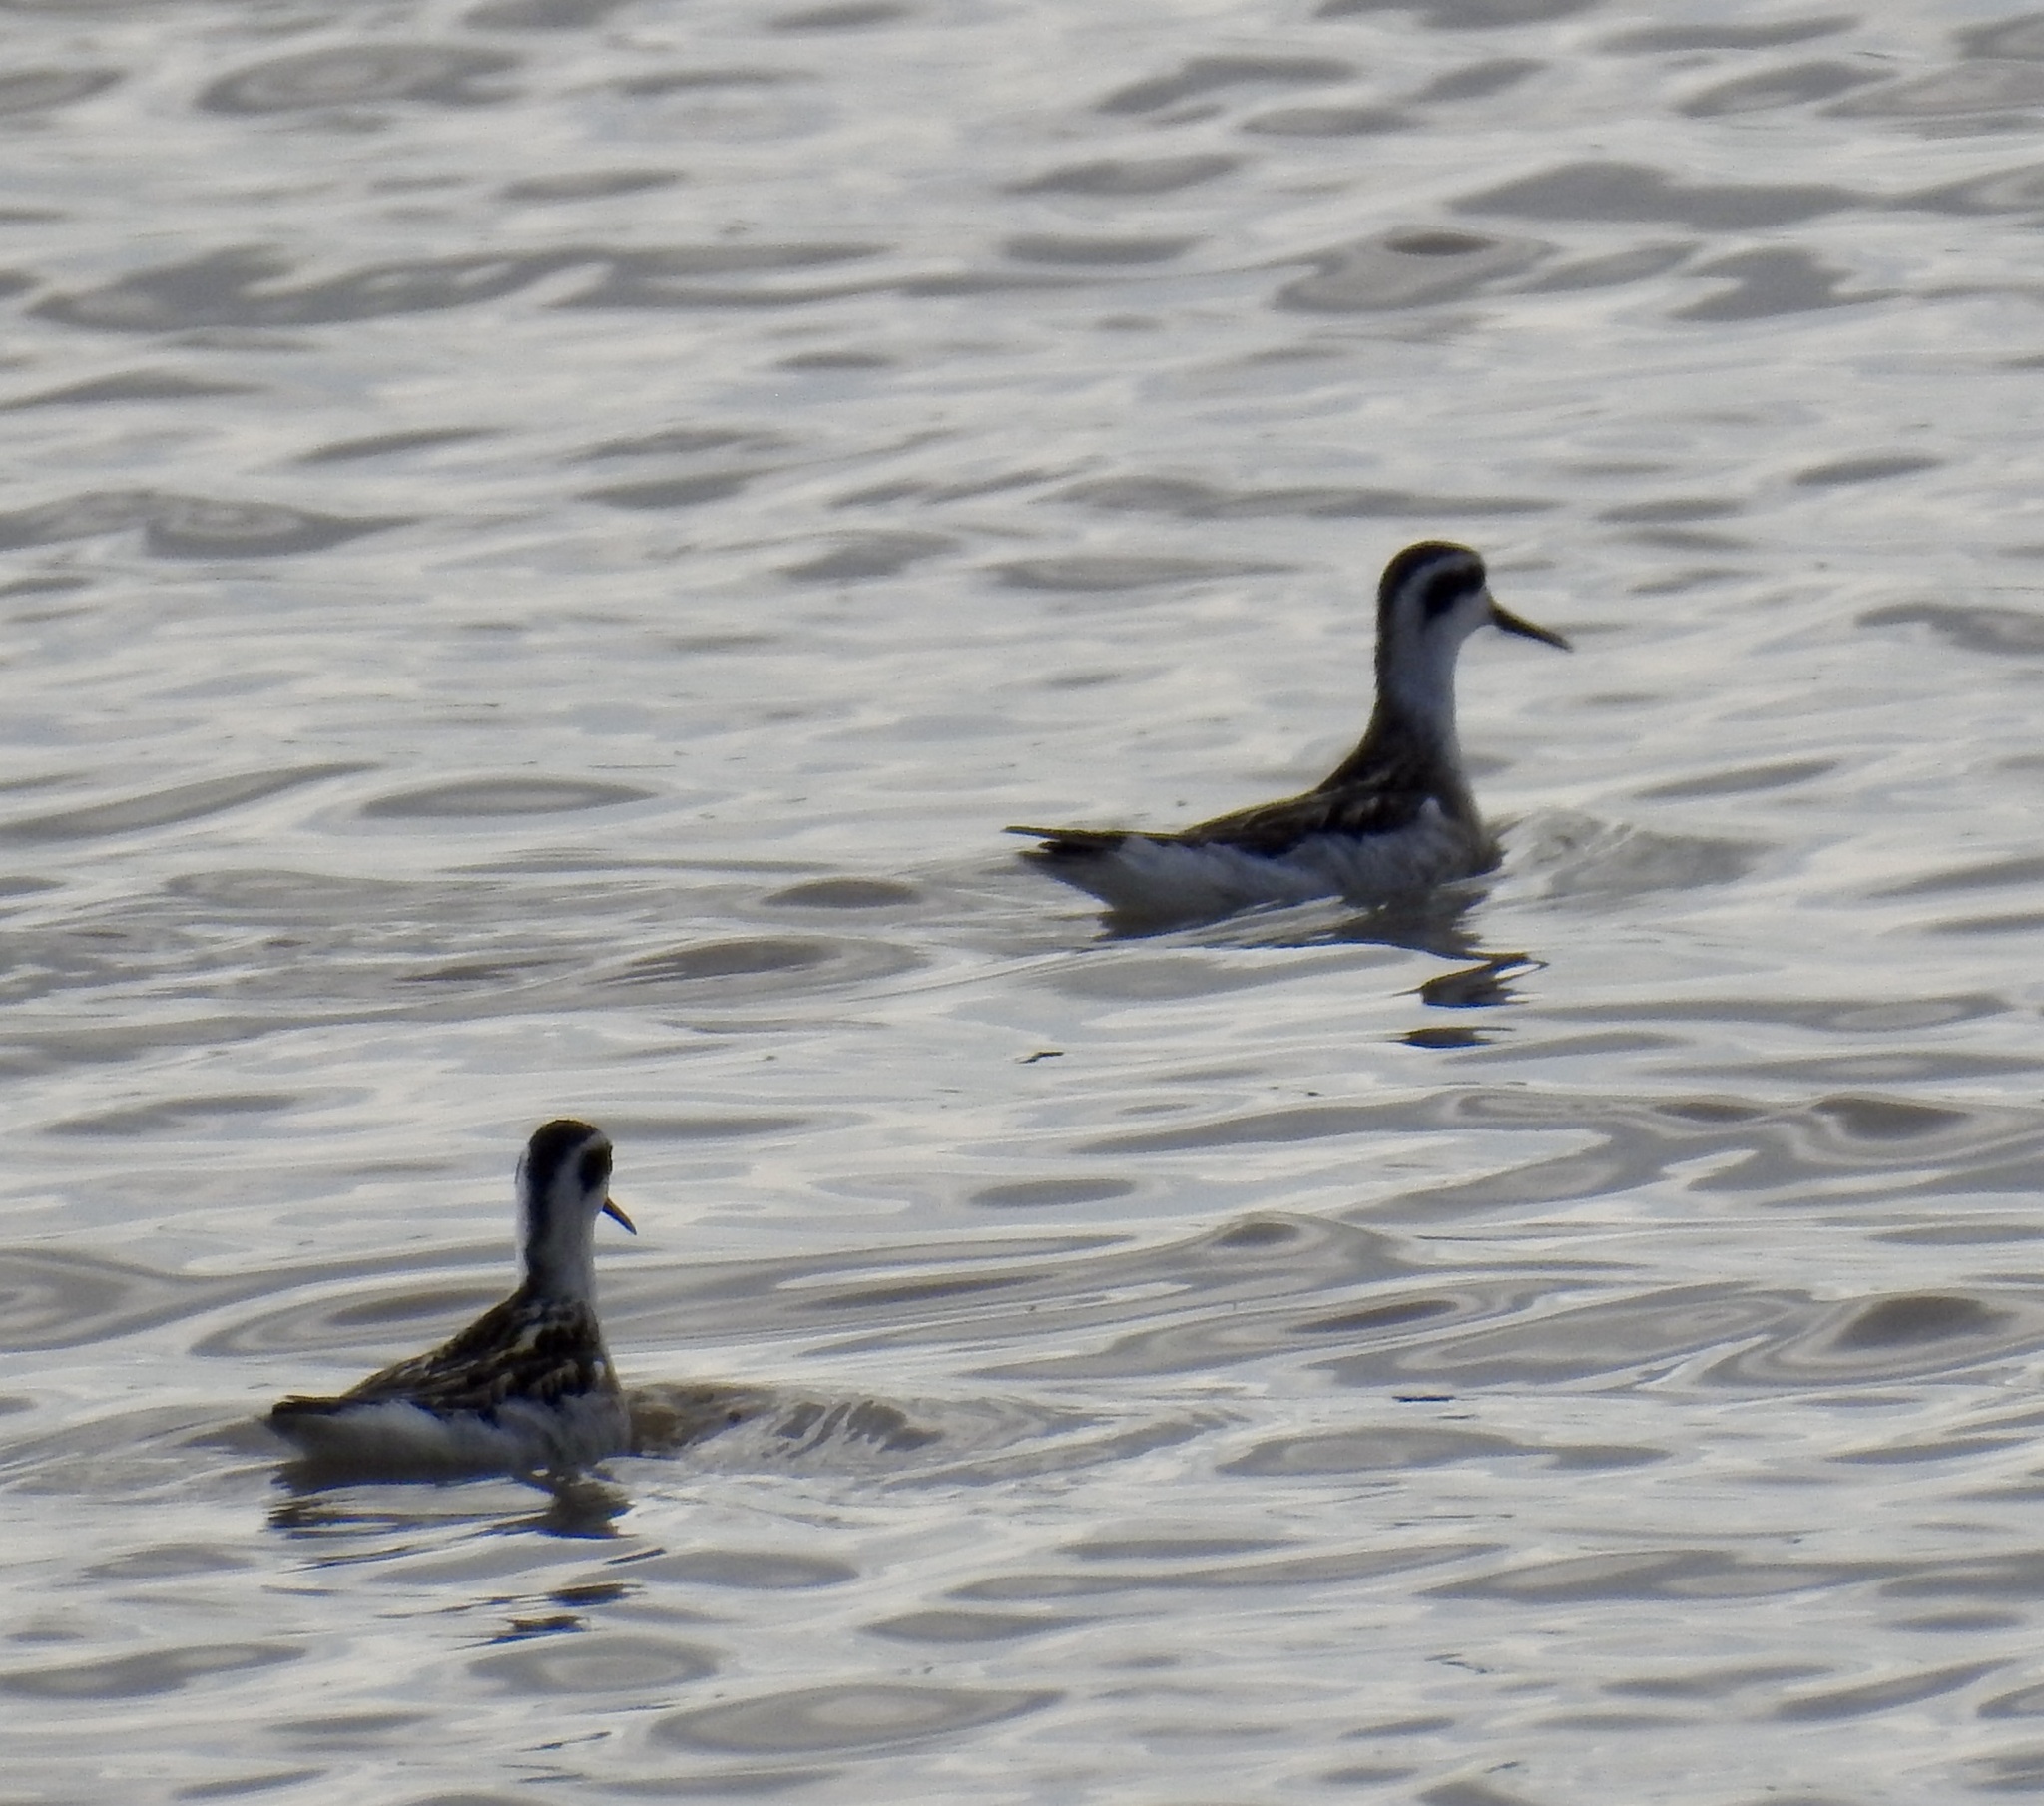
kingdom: Animalia
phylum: Chordata
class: Aves
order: Charadriiformes
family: Scolopacidae
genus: Phalaropus
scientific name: Phalaropus lobatus
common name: Red-necked phalarope
